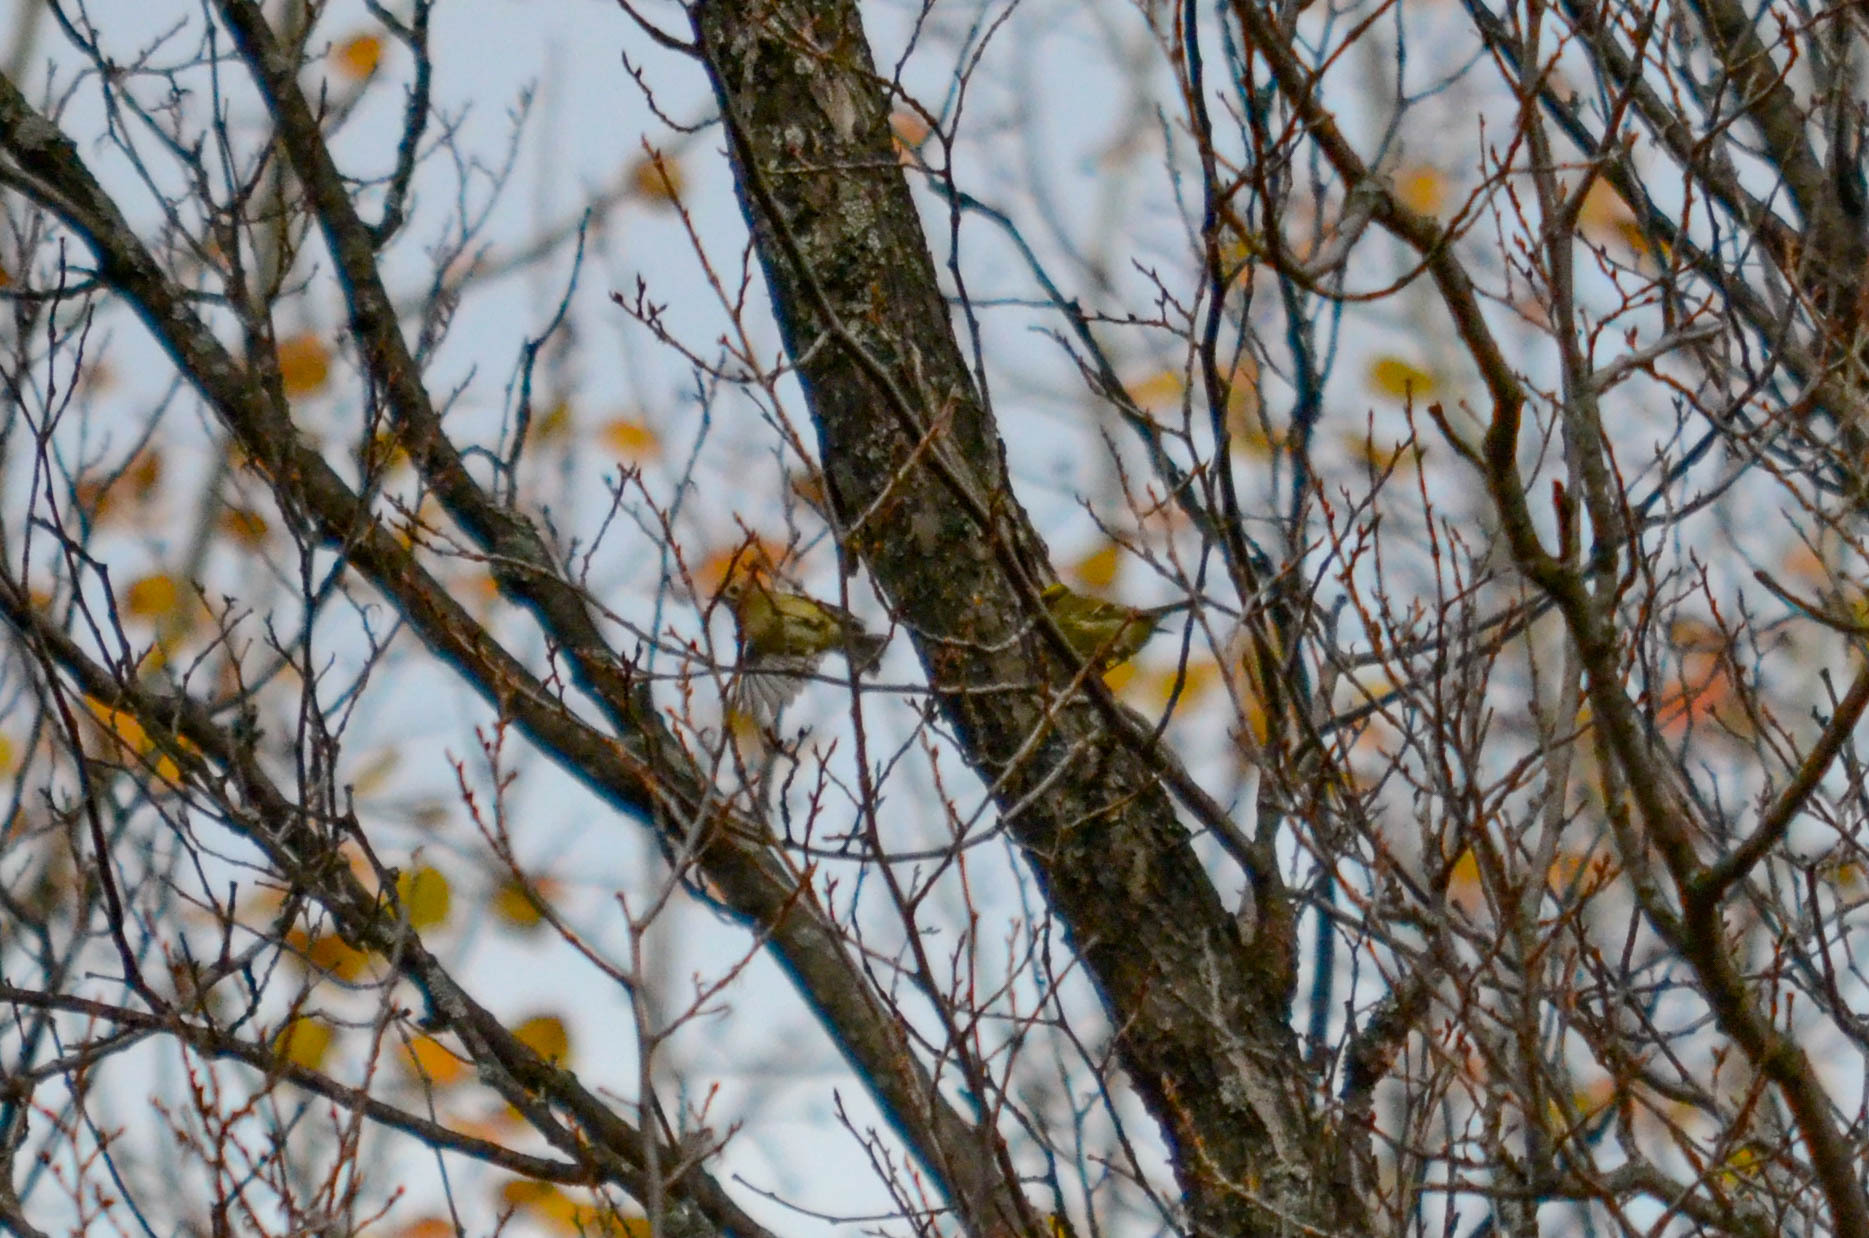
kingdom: Animalia
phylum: Chordata
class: Aves
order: Passeriformes
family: Regulidae
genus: Regulus
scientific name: Regulus regulus
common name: Goldcrest
